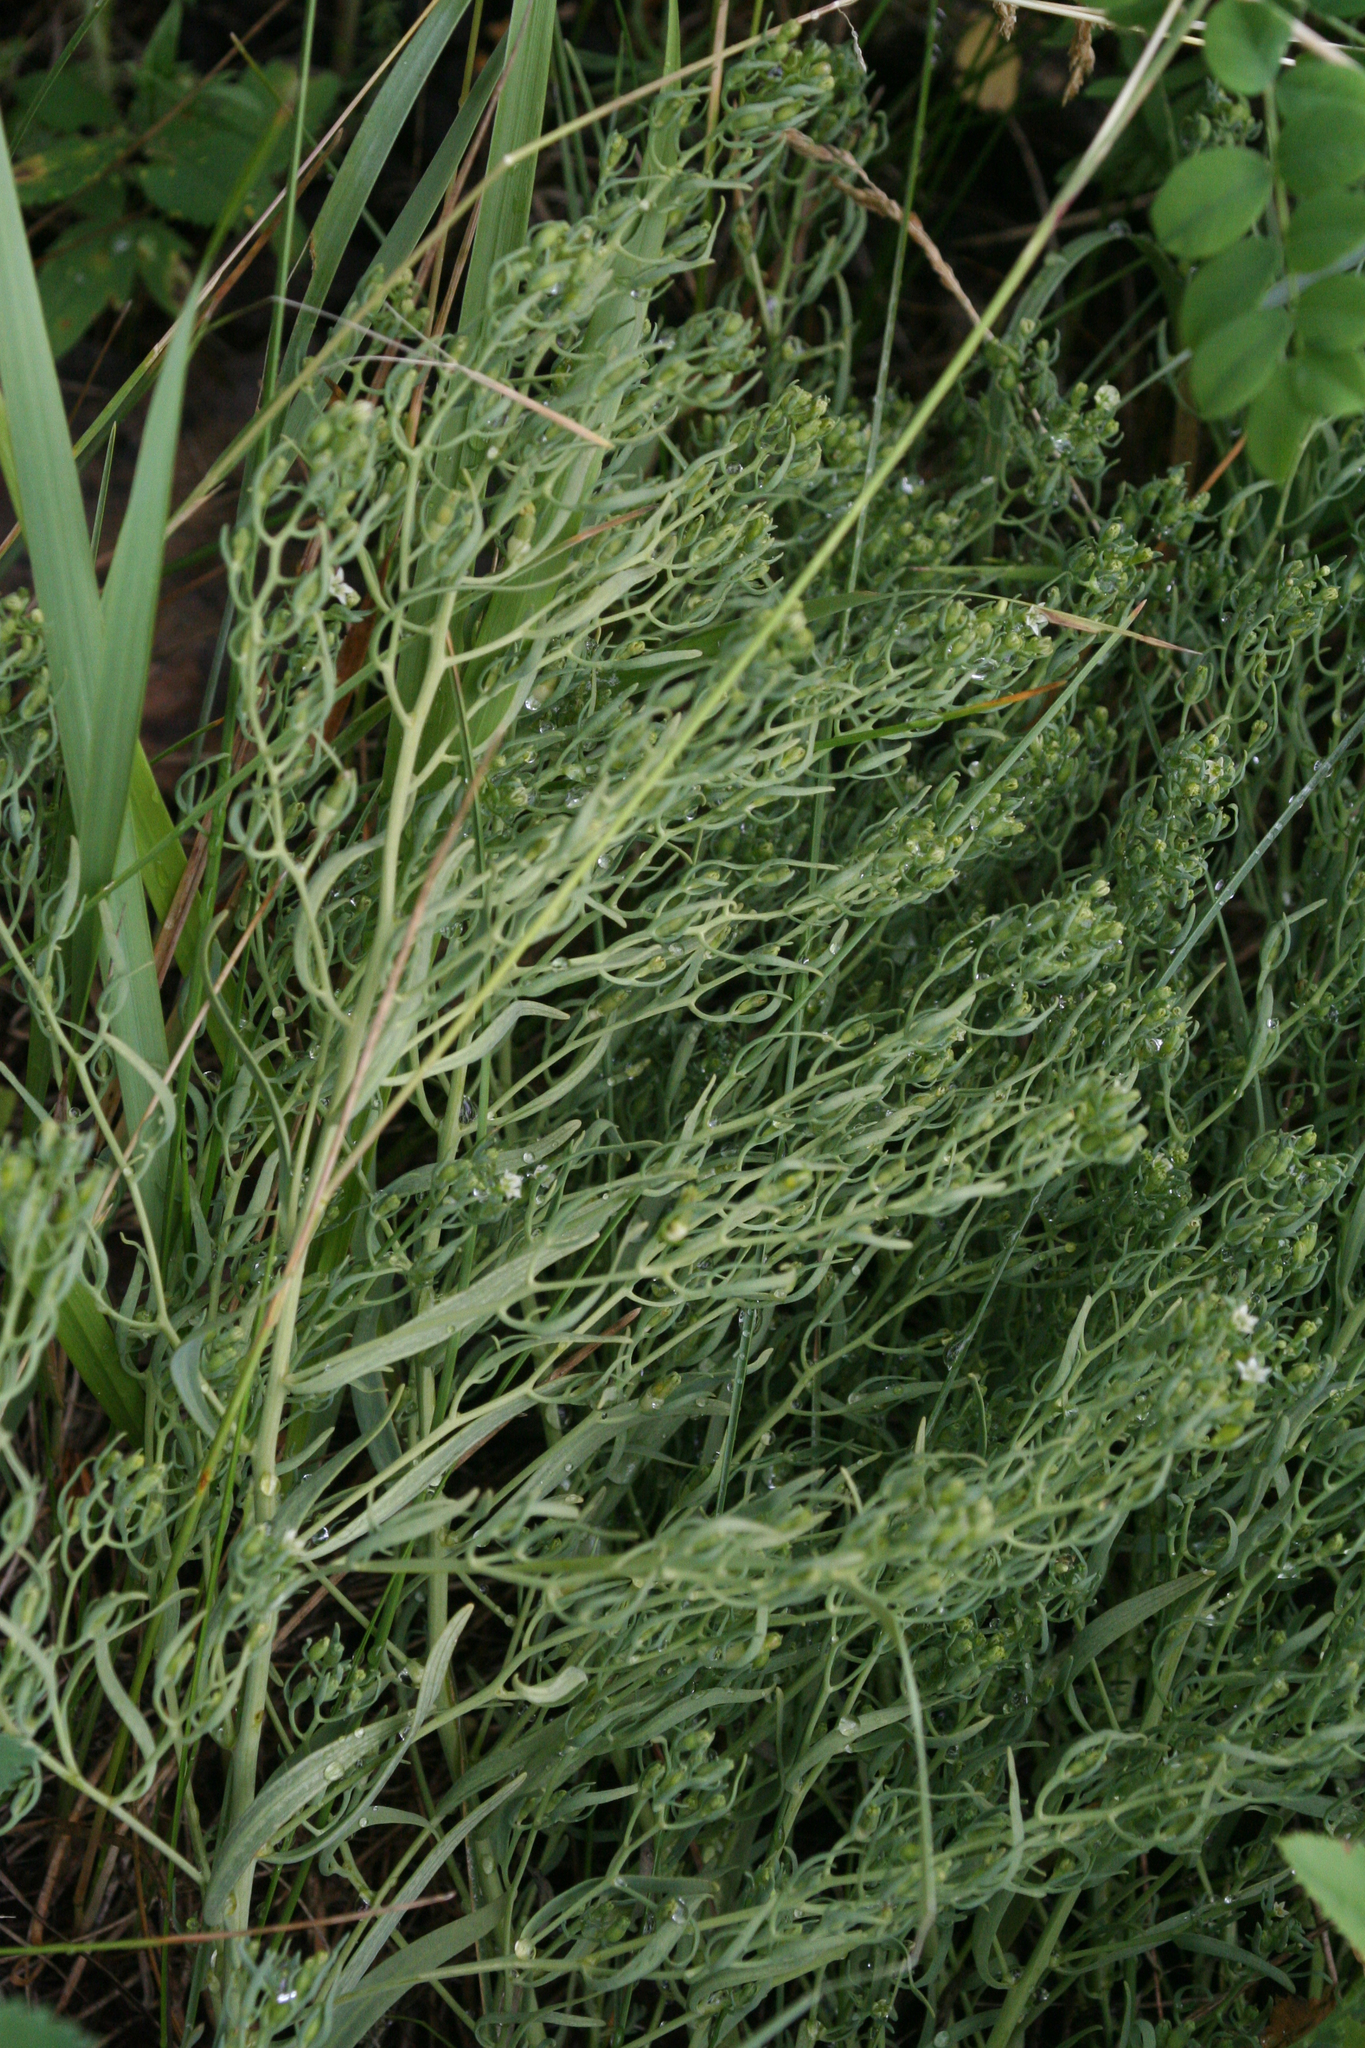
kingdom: Plantae
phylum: Tracheophyta
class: Magnoliopsida
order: Santalales
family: Thesiaceae
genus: Thesium
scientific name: Thesium refractum
